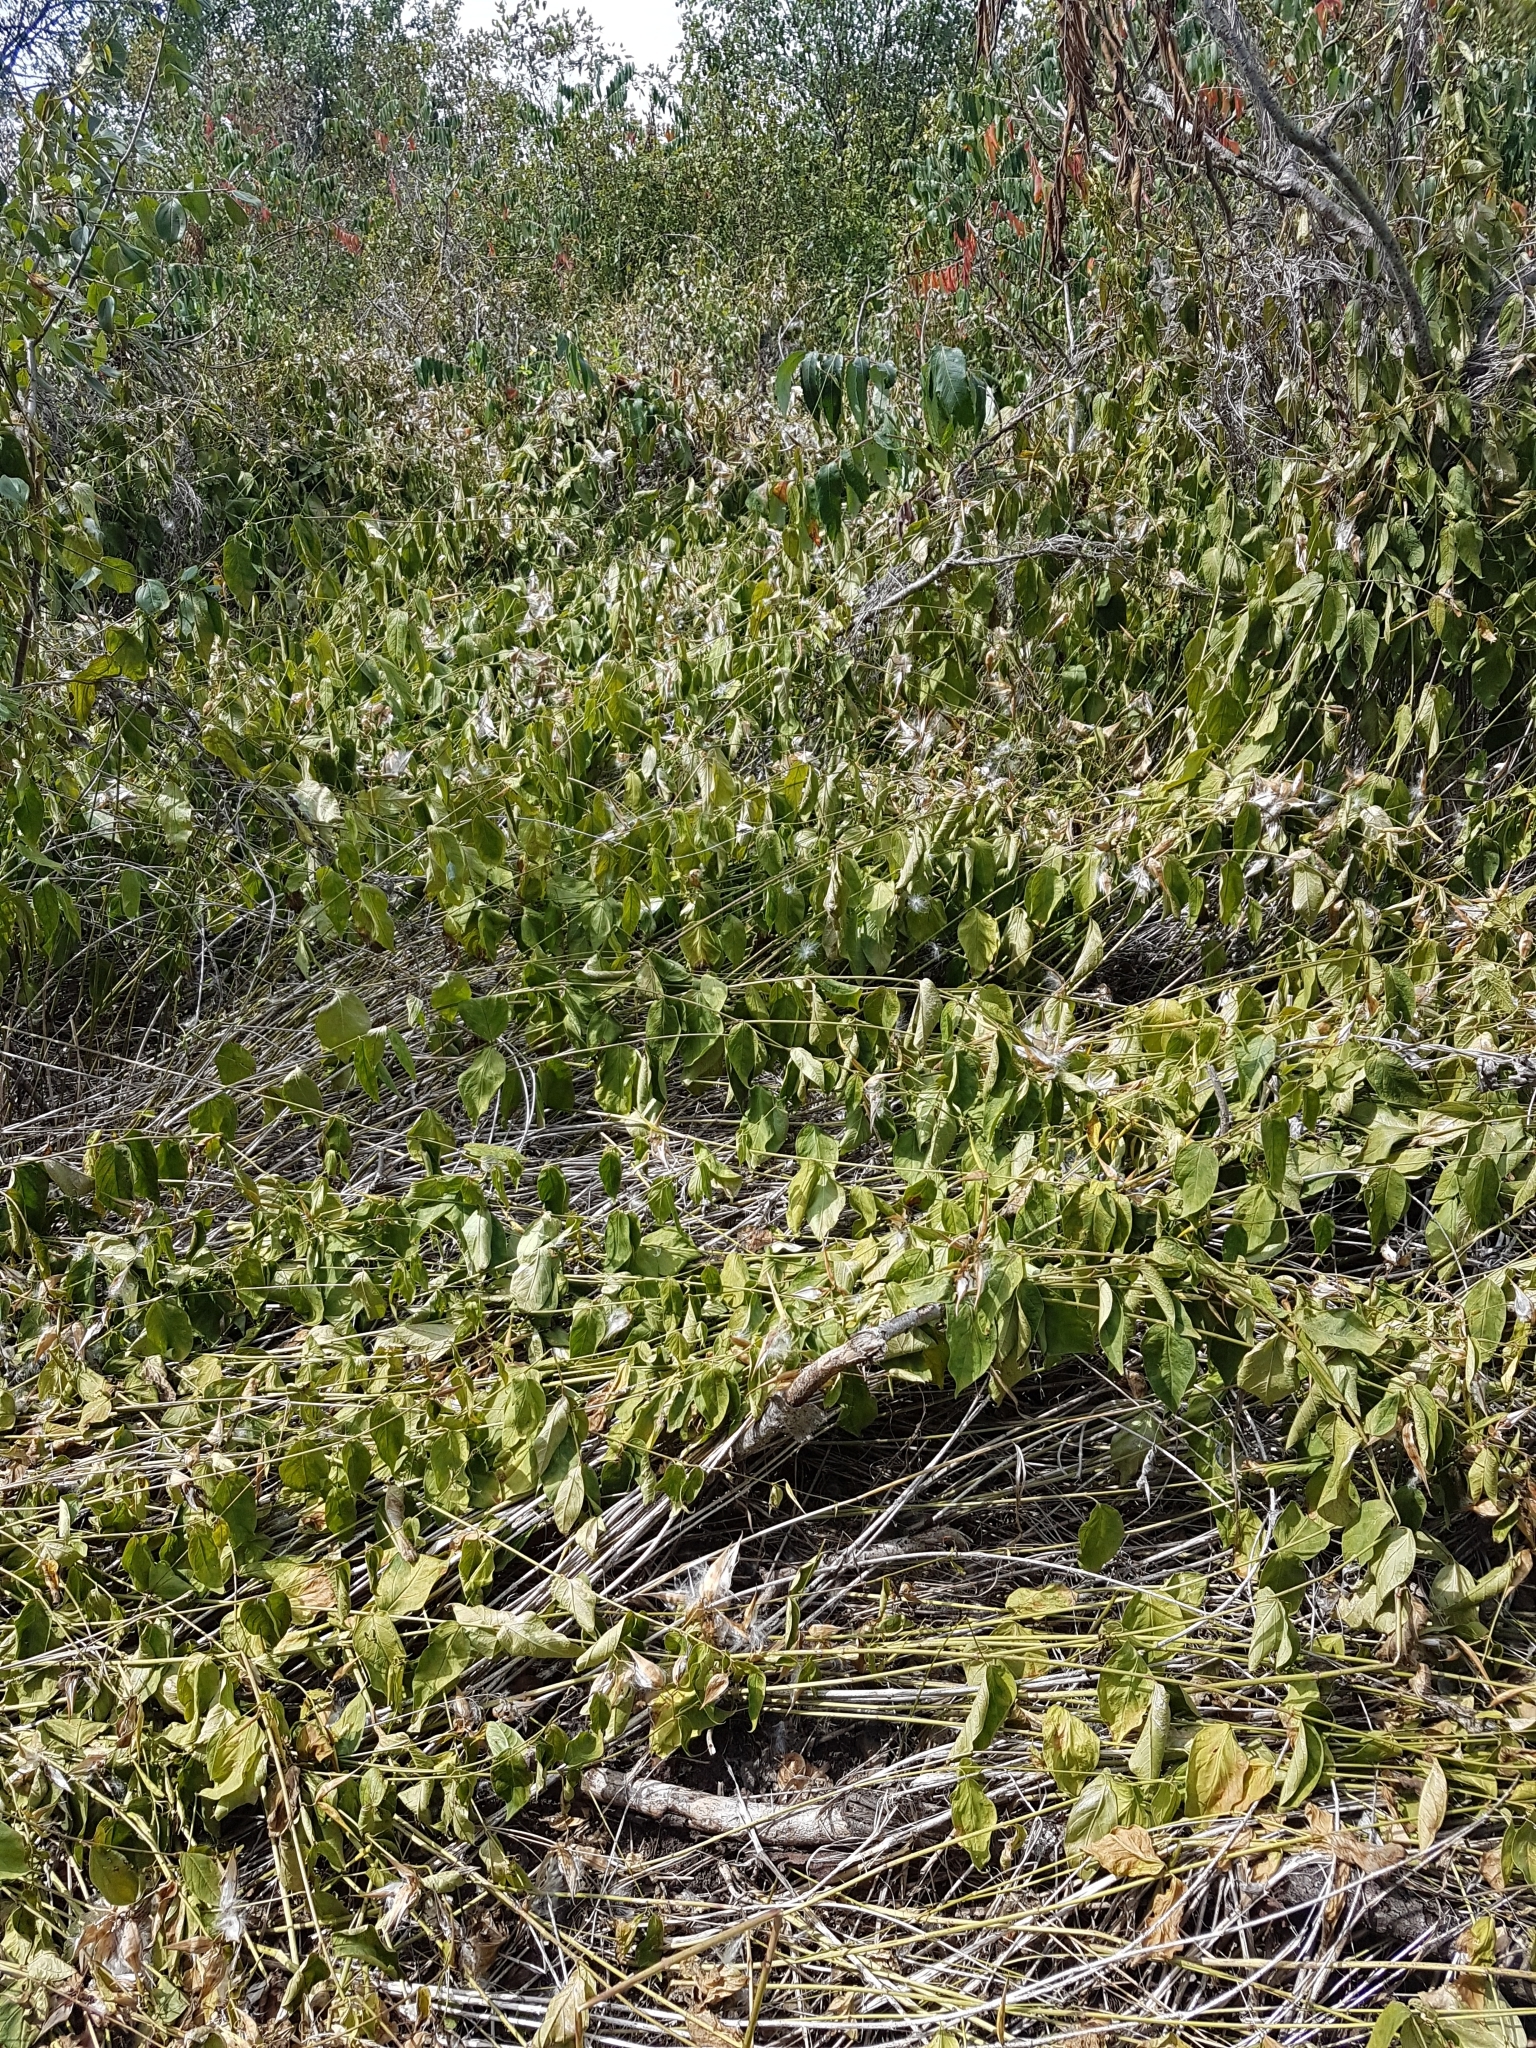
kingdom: Plantae
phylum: Tracheophyta
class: Magnoliopsida
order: Gentianales
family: Apocynaceae
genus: Vincetoxicum
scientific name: Vincetoxicum rossicum
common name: Dog-strangling vine
